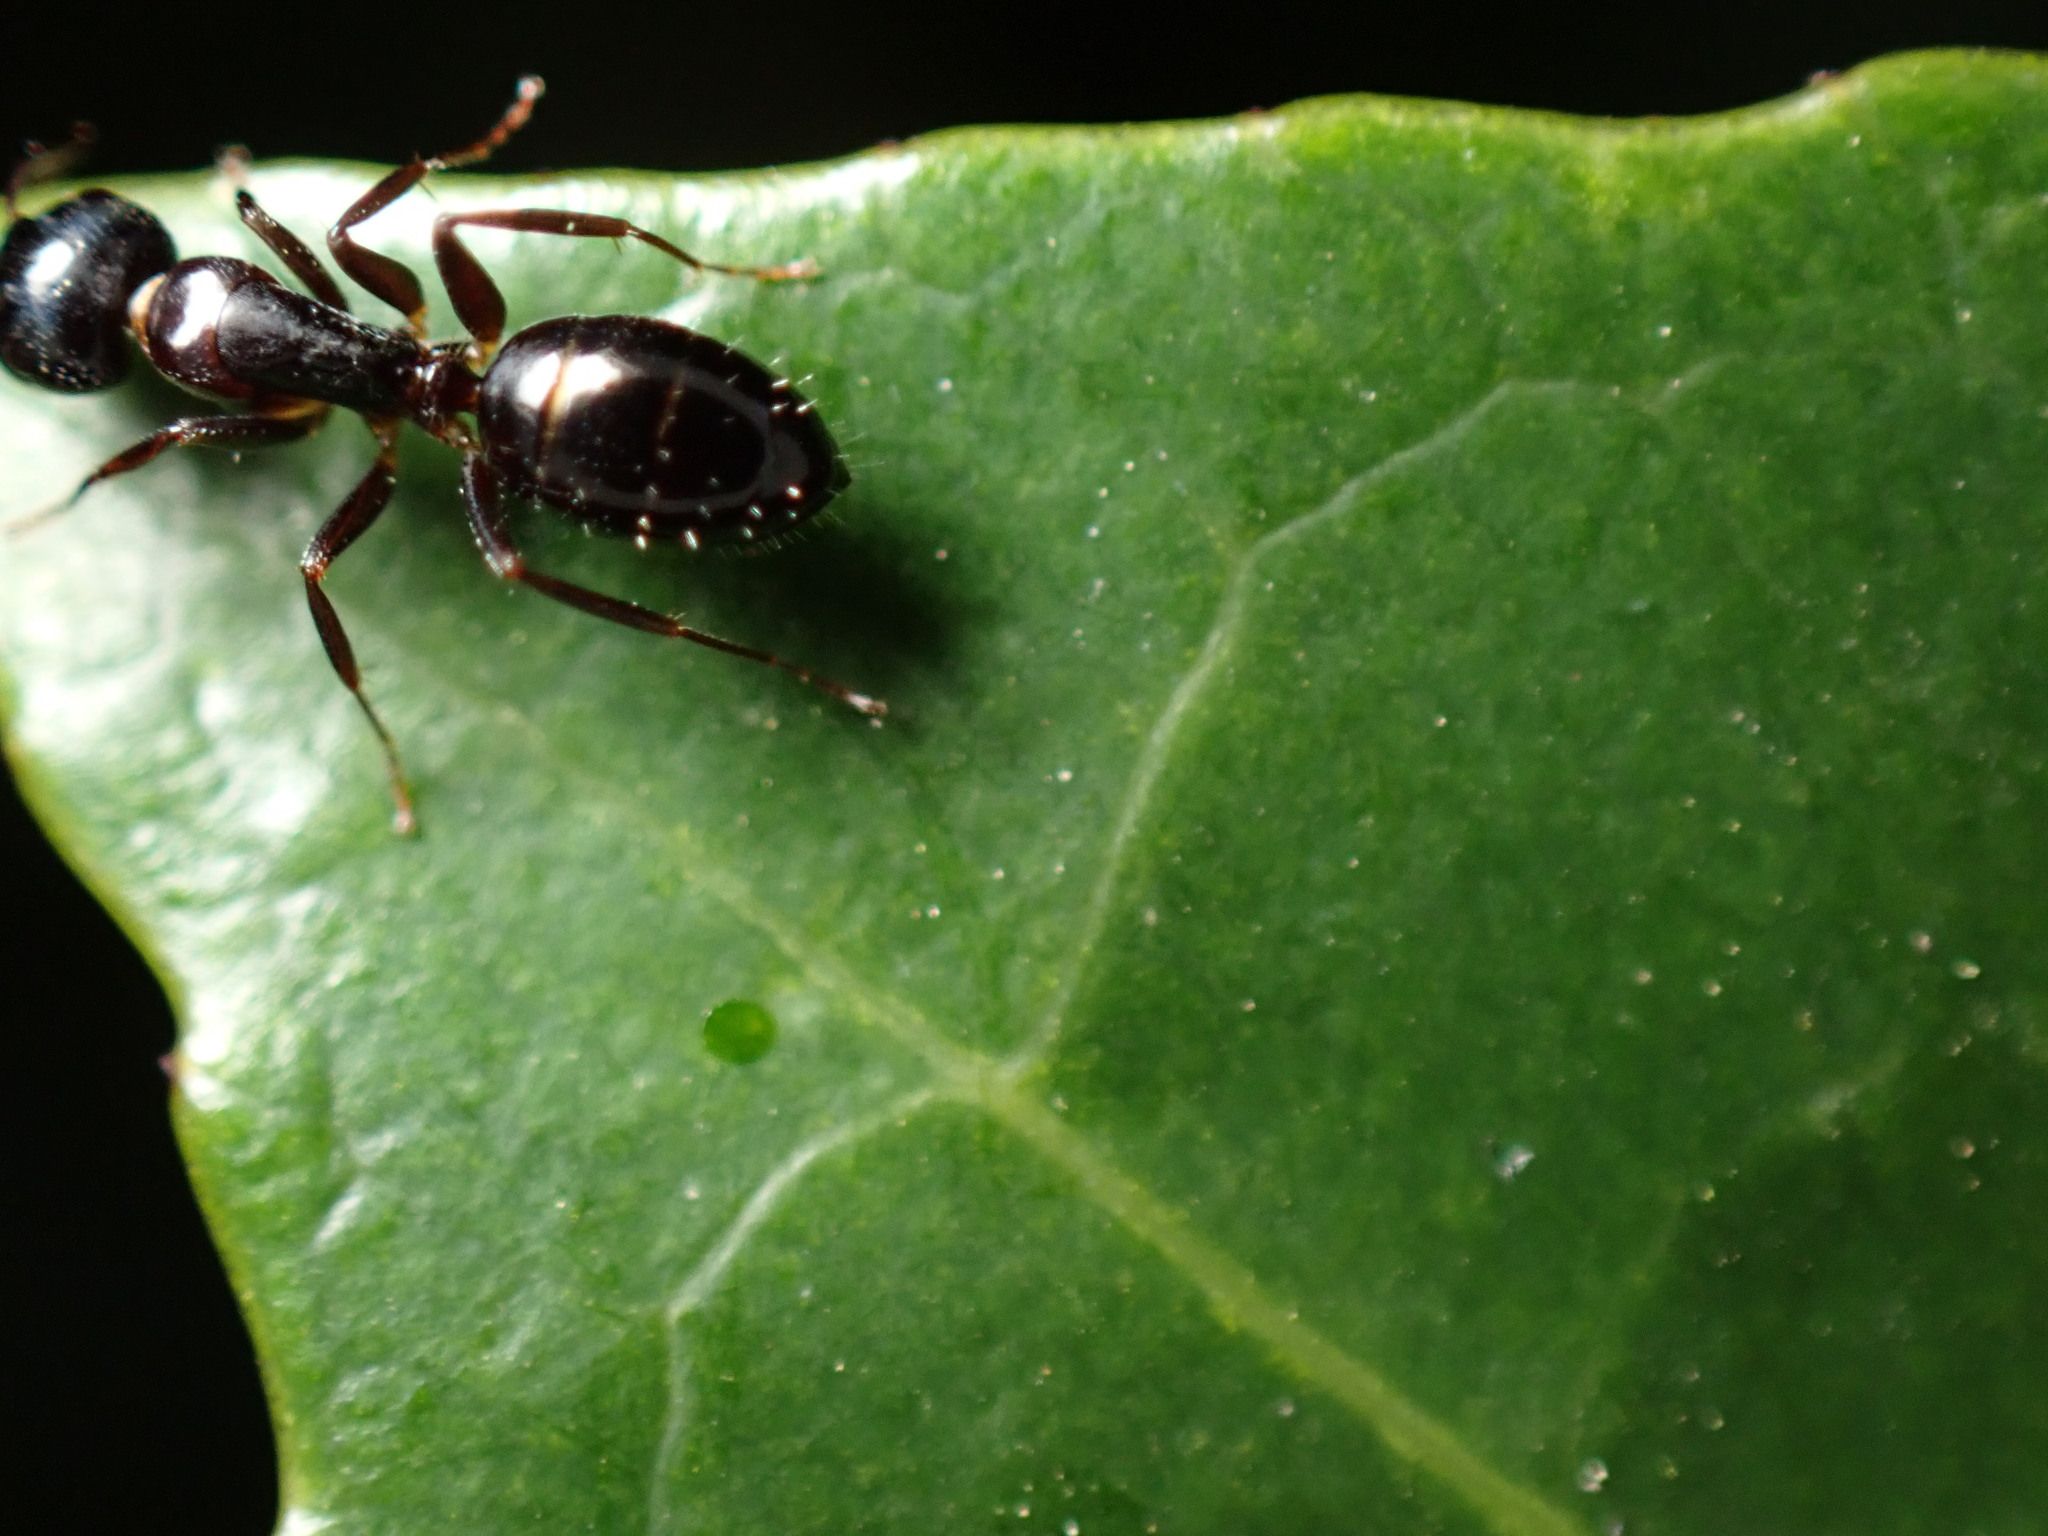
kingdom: Animalia
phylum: Arthropoda
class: Insecta
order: Hymenoptera
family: Formicidae
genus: Camponotus
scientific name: Camponotus vitiosus
